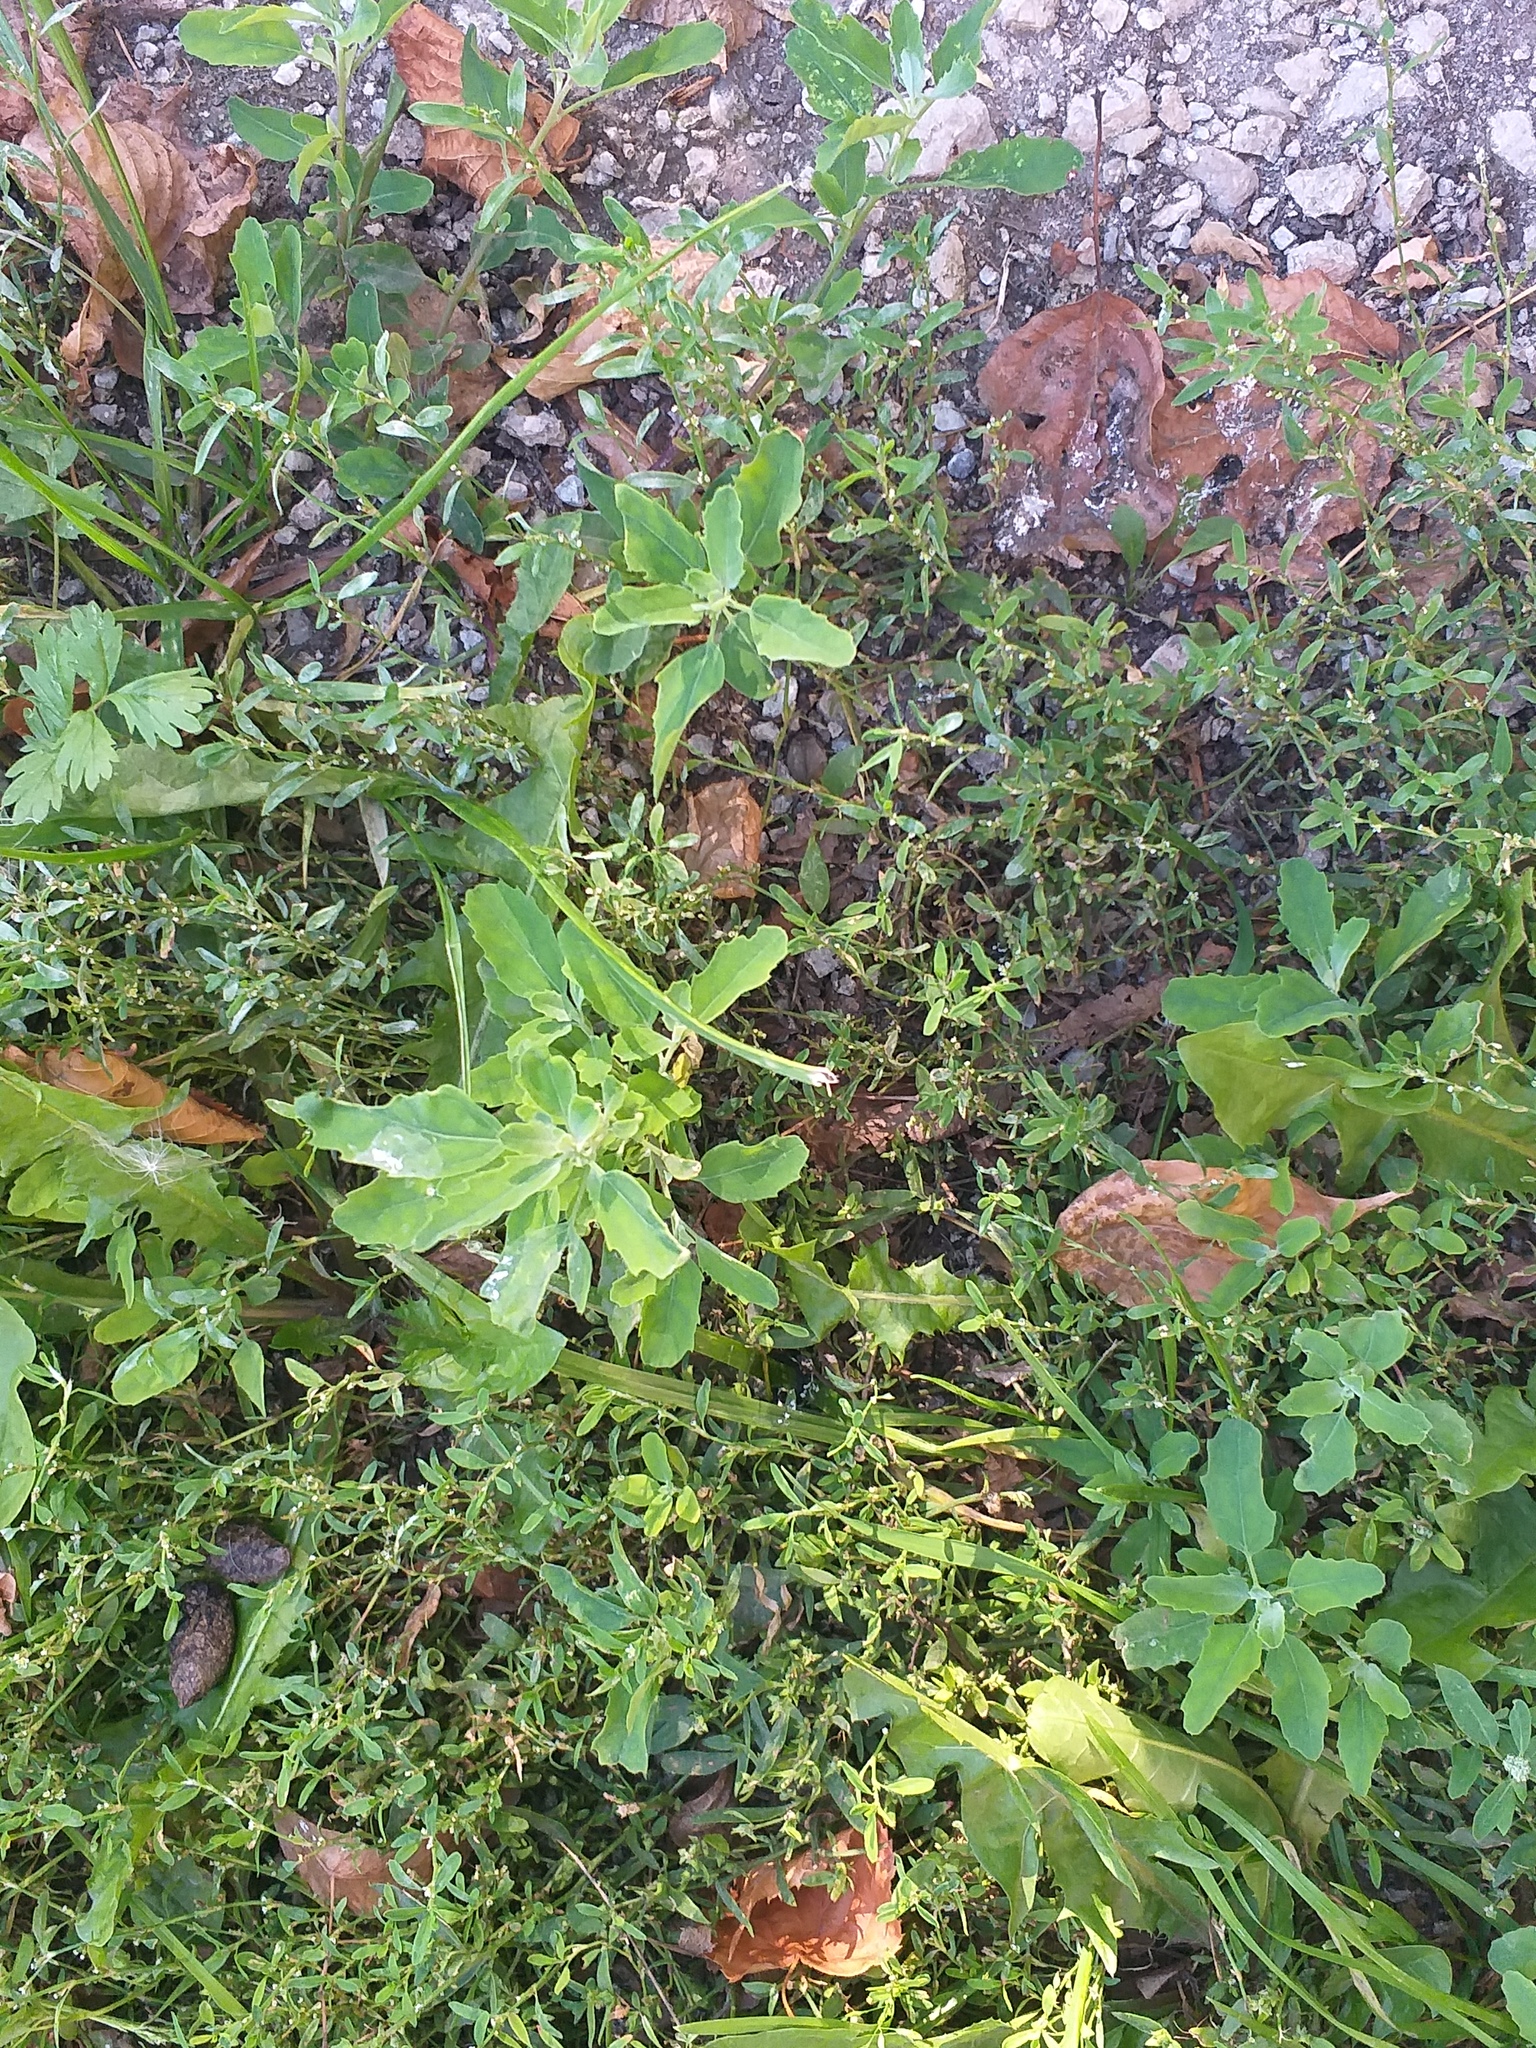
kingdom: Plantae
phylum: Tracheophyta
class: Magnoliopsida
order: Caryophyllales
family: Amaranthaceae
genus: Chenopodium
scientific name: Chenopodium album
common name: Fat-hen
